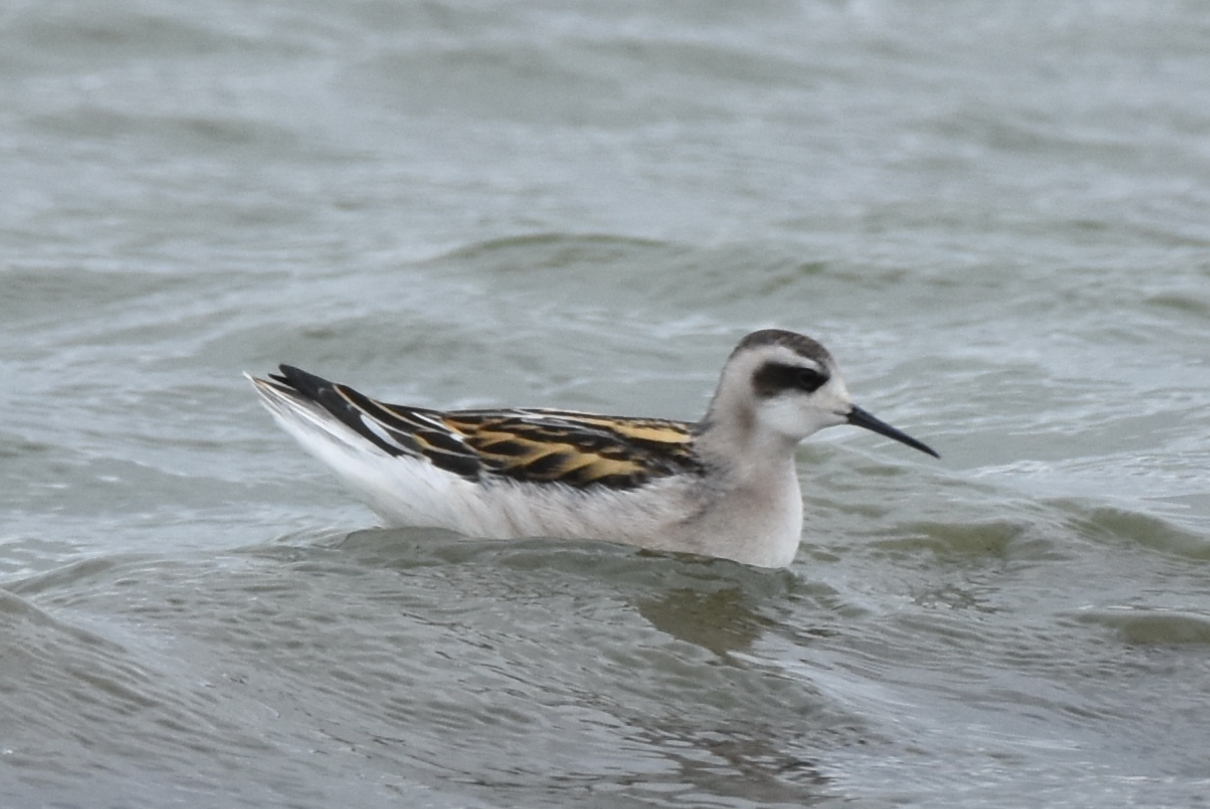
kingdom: Animalia
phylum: Chordata
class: Aves
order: Charadriiformes
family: Scolopacidae
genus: Phalaropus
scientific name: Phalaropus lobatus
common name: Red-necked phalarope
